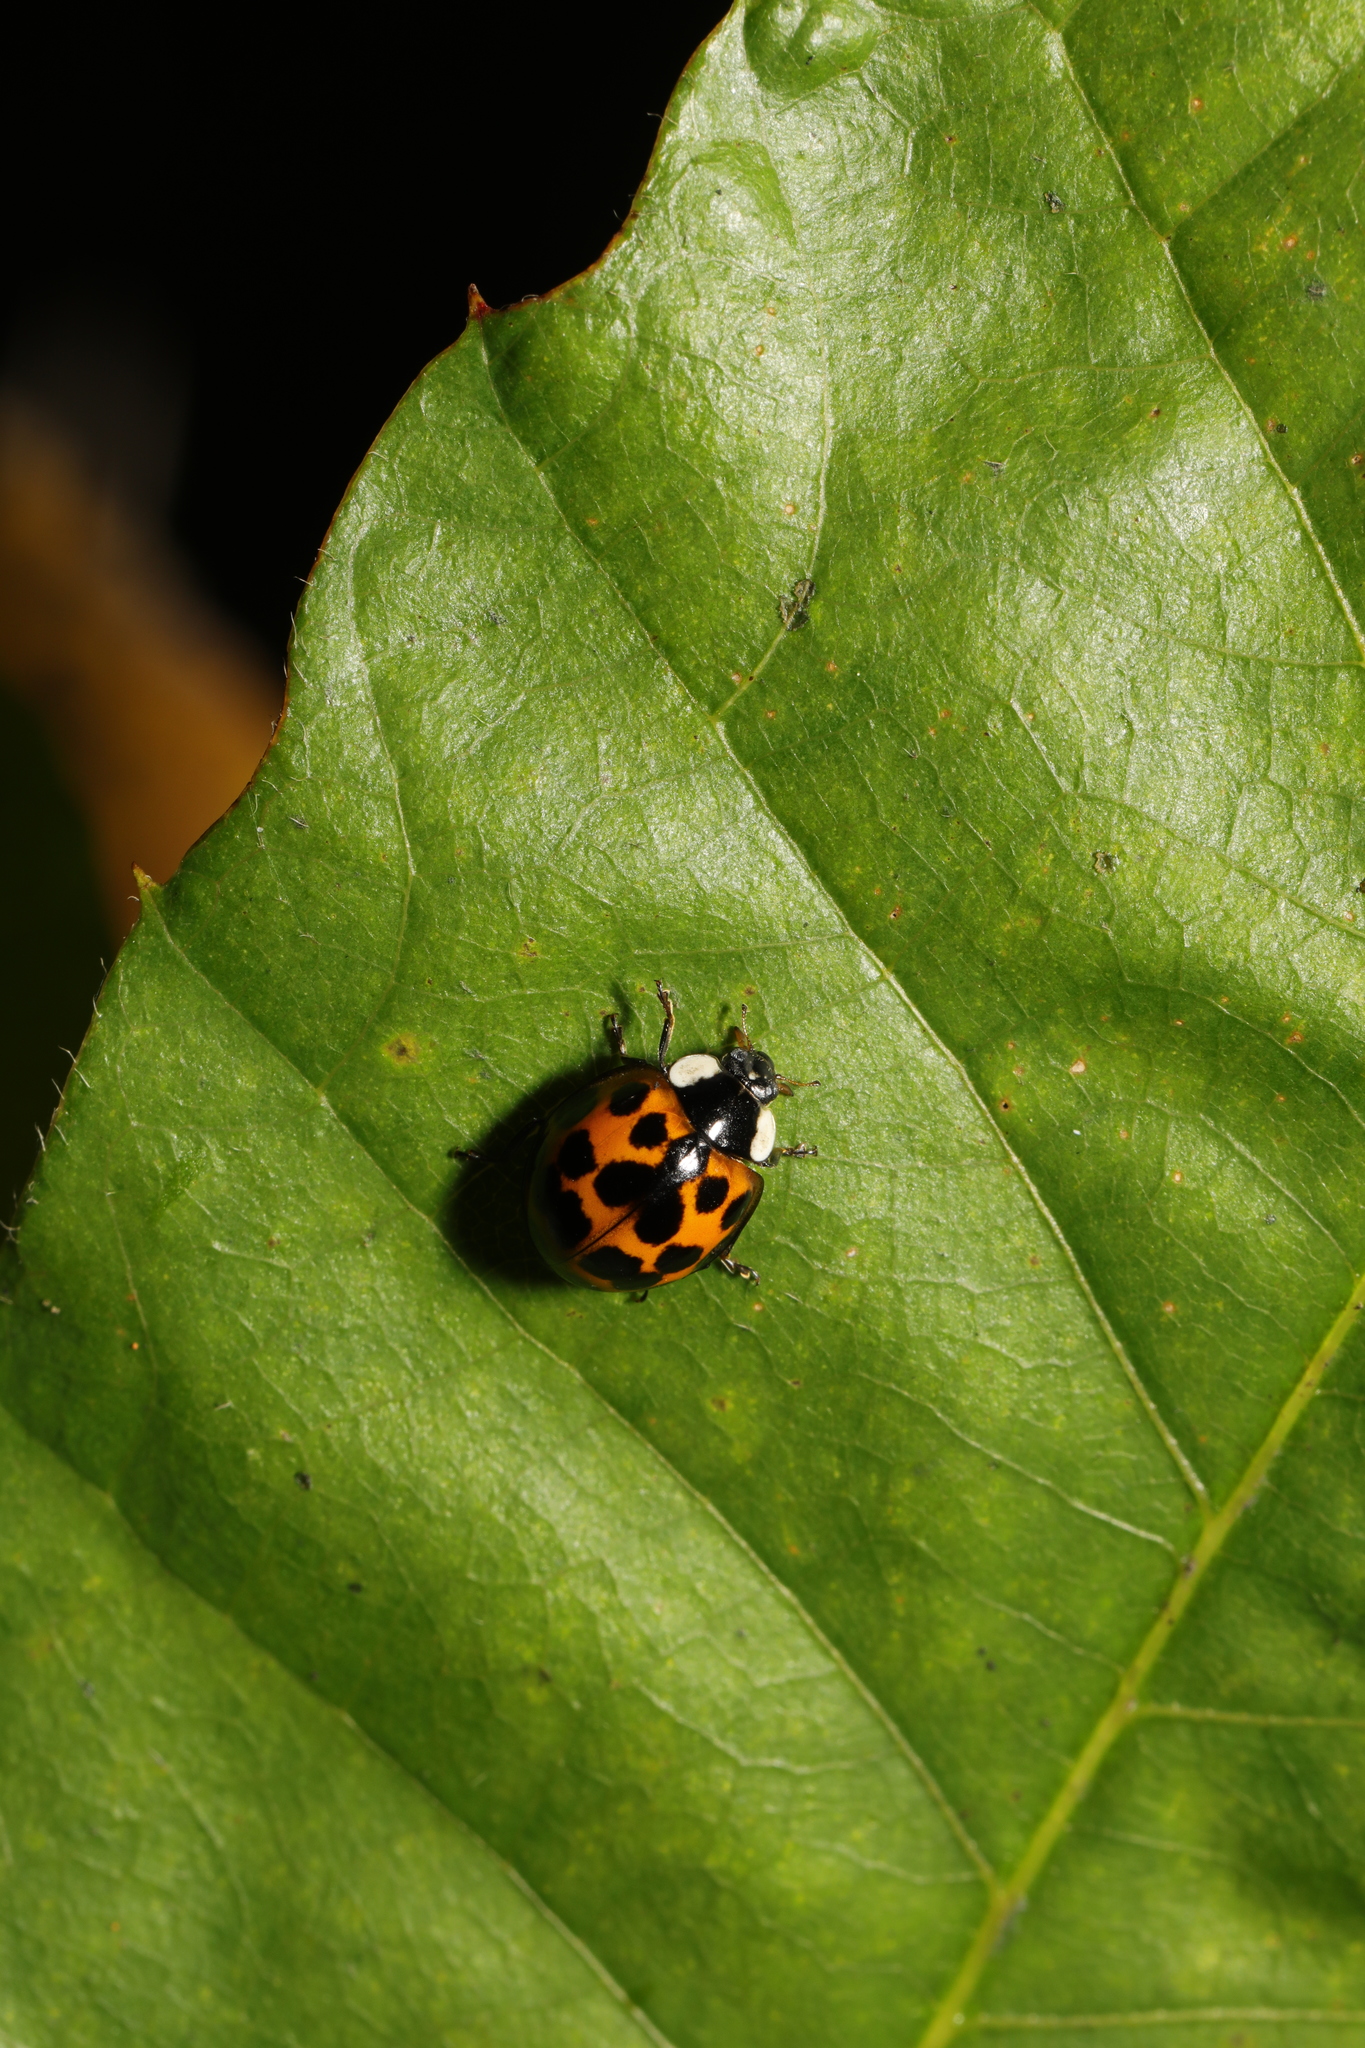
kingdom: Animalia
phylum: Arthropoda
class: Insecta
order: Coleoptera
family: Coccinellidae
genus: Harmonia
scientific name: Harmonia axyridis
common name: Harlequin ladybird
